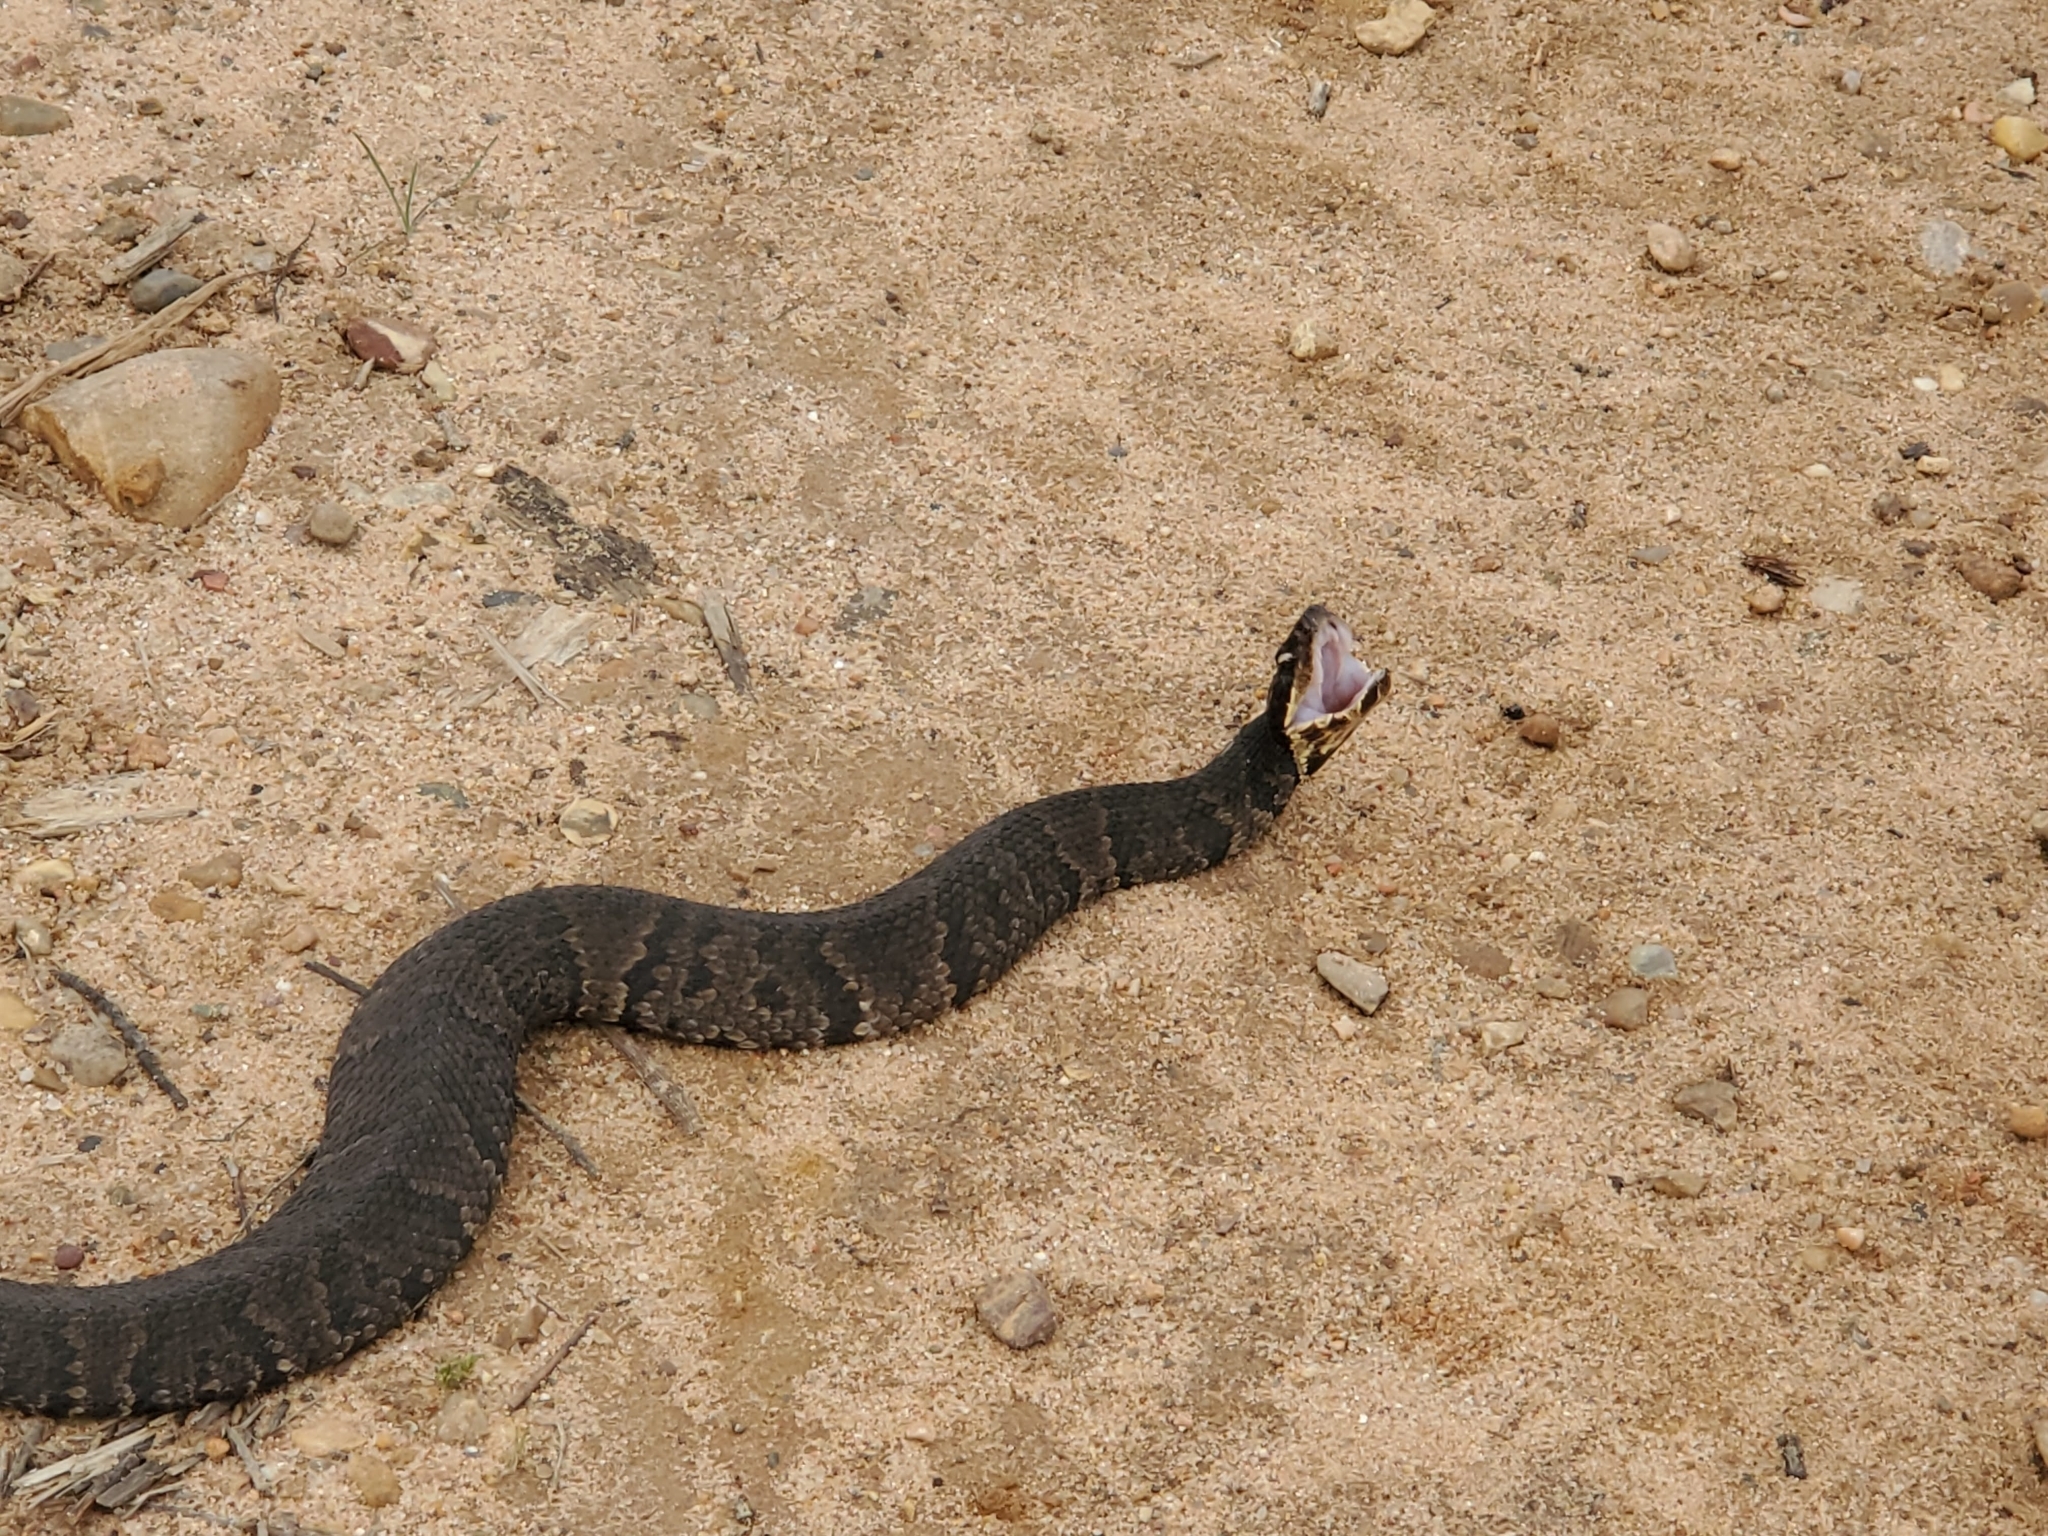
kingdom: Animalia
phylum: Chordata
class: Squamata
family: Viperidae
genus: Agkistrodon
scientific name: Agkistrodon piscivorus
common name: Cottonmouth
